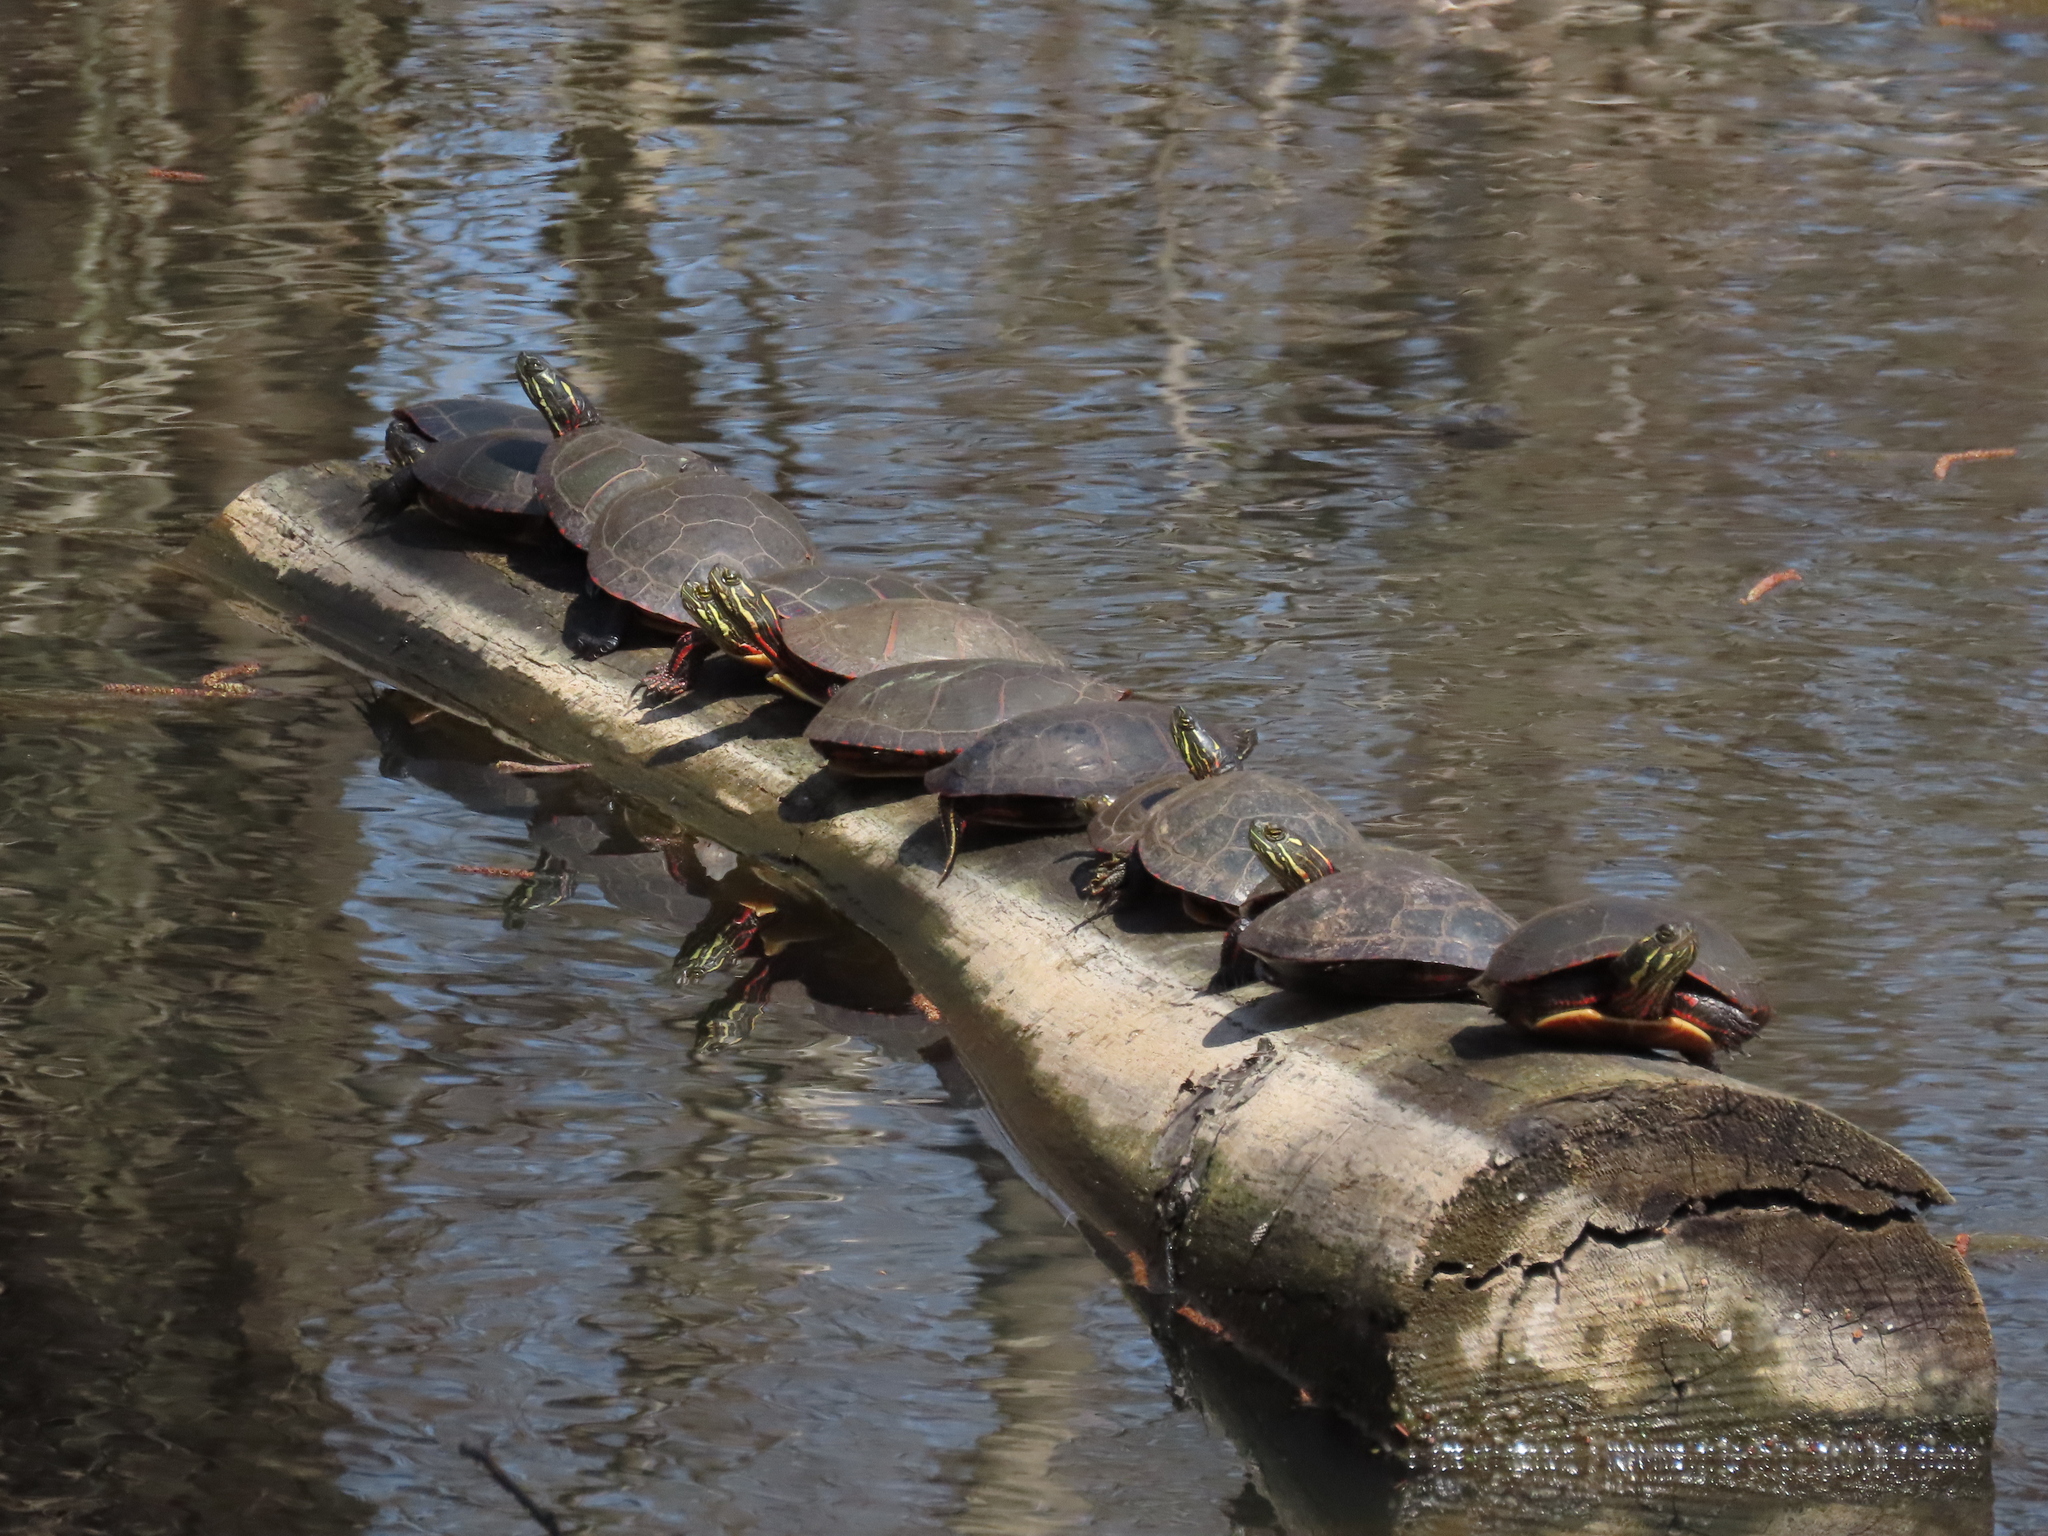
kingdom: Animalia
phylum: Chordata
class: Testudines
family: Emydidae
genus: Chrysemys
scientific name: Chrysemys picta
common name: Painted turtle
